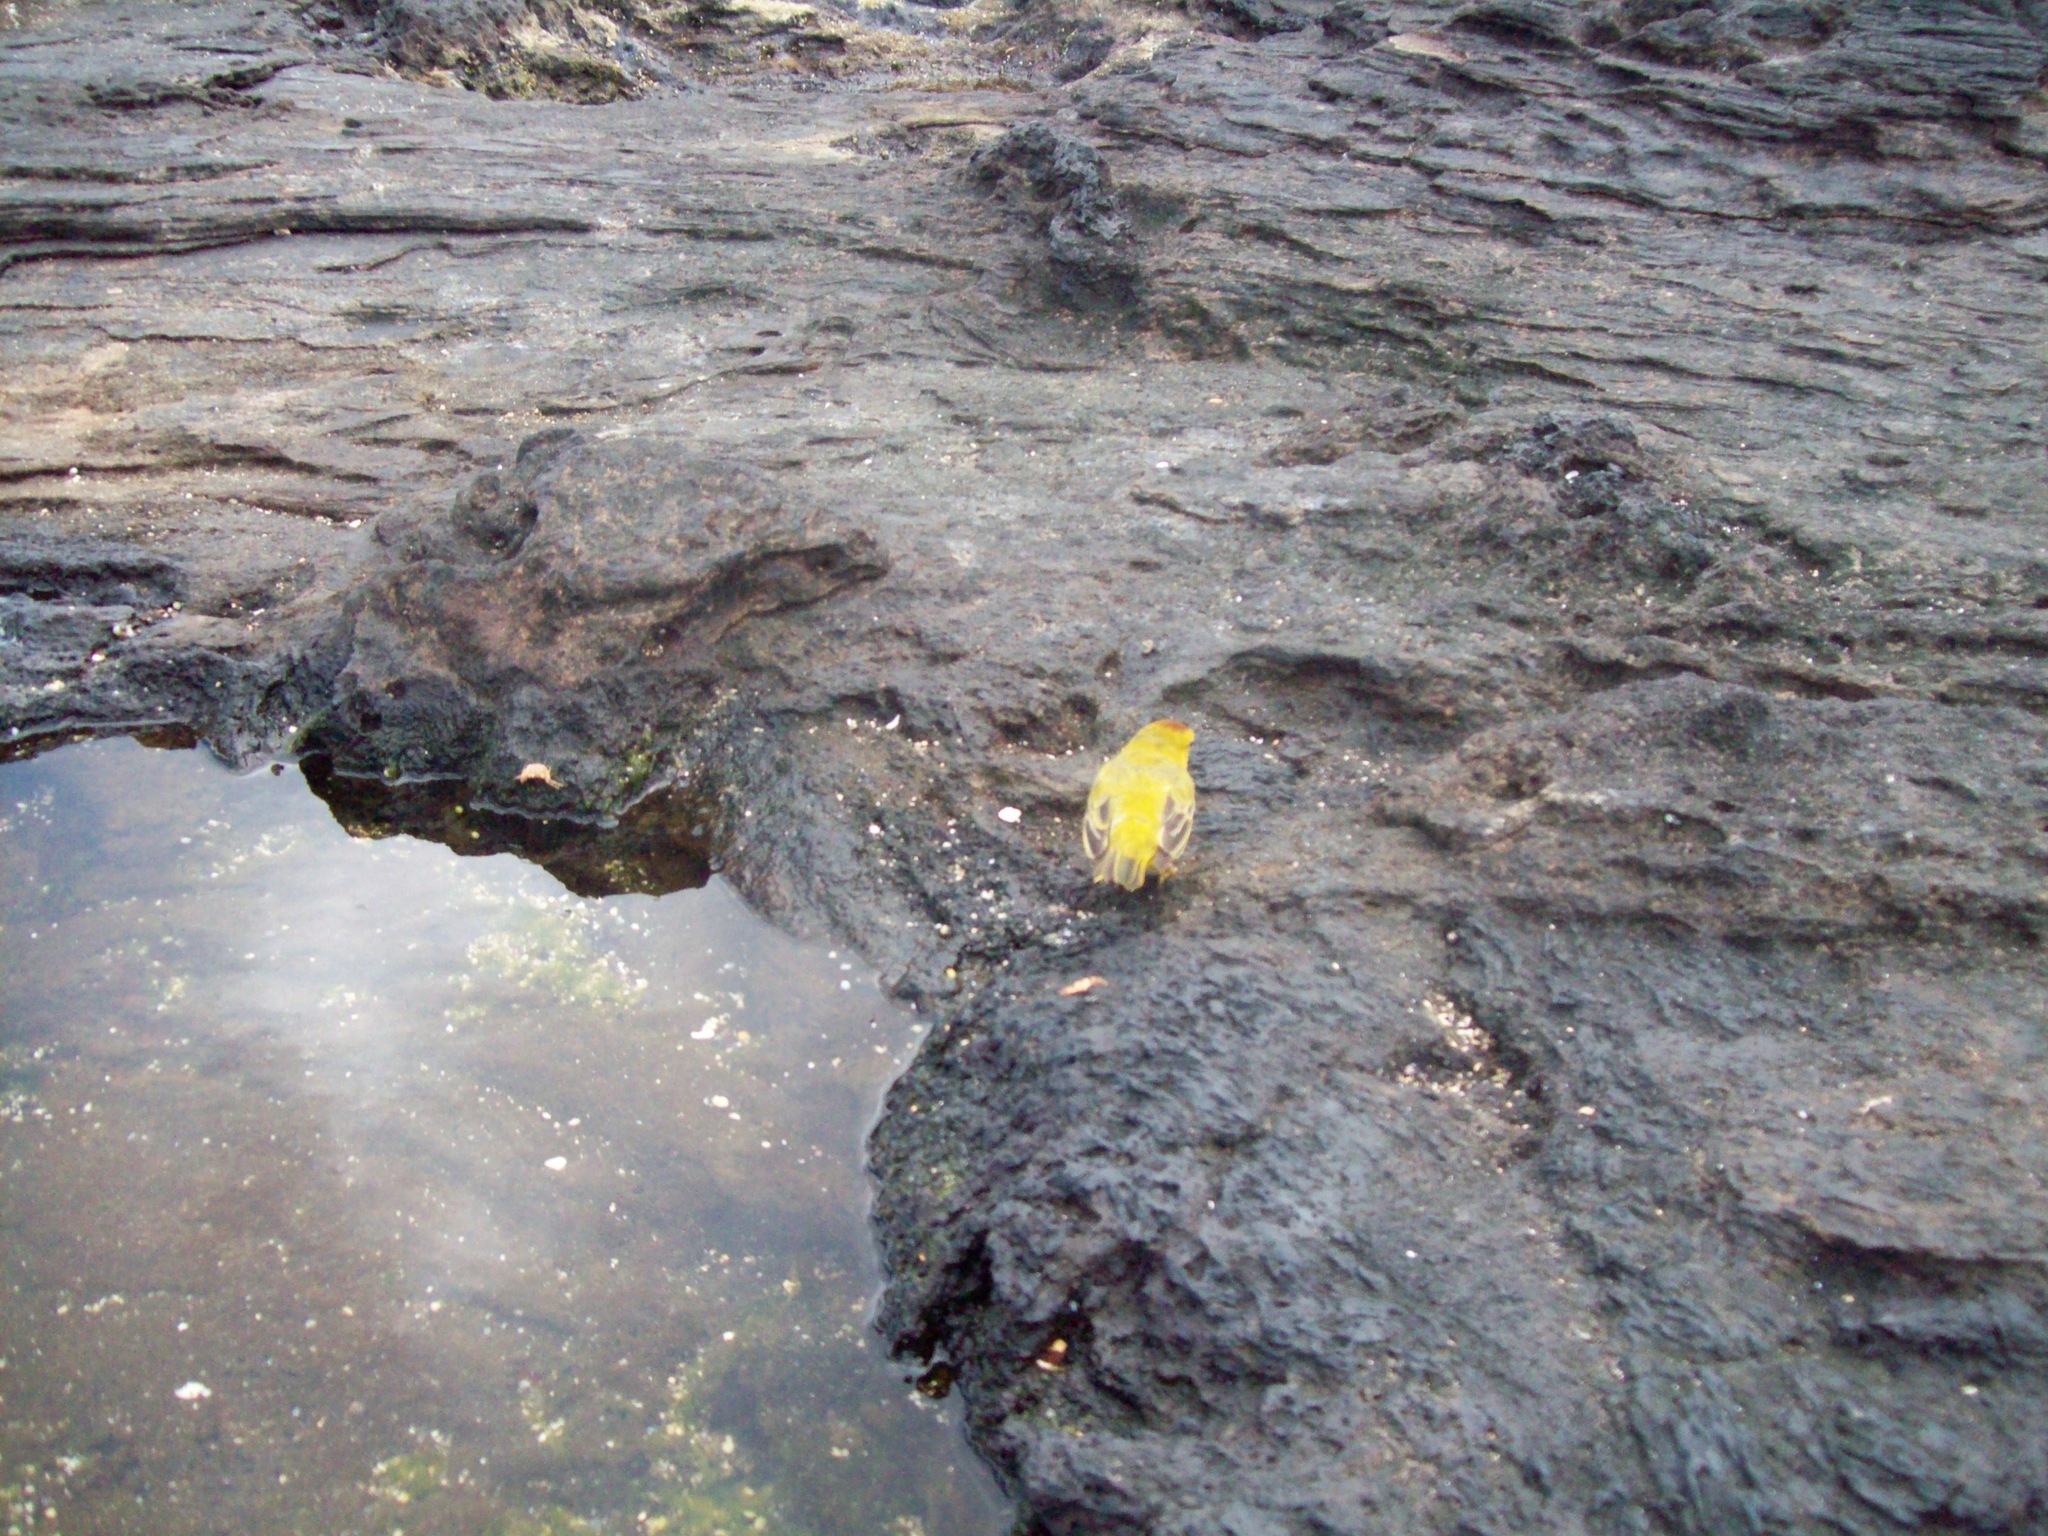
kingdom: Animalia
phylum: Chordata
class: Aves
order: Passeriformes
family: Parulidae
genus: Setophaga
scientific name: Setophaga petechia
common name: Yellow warbler
